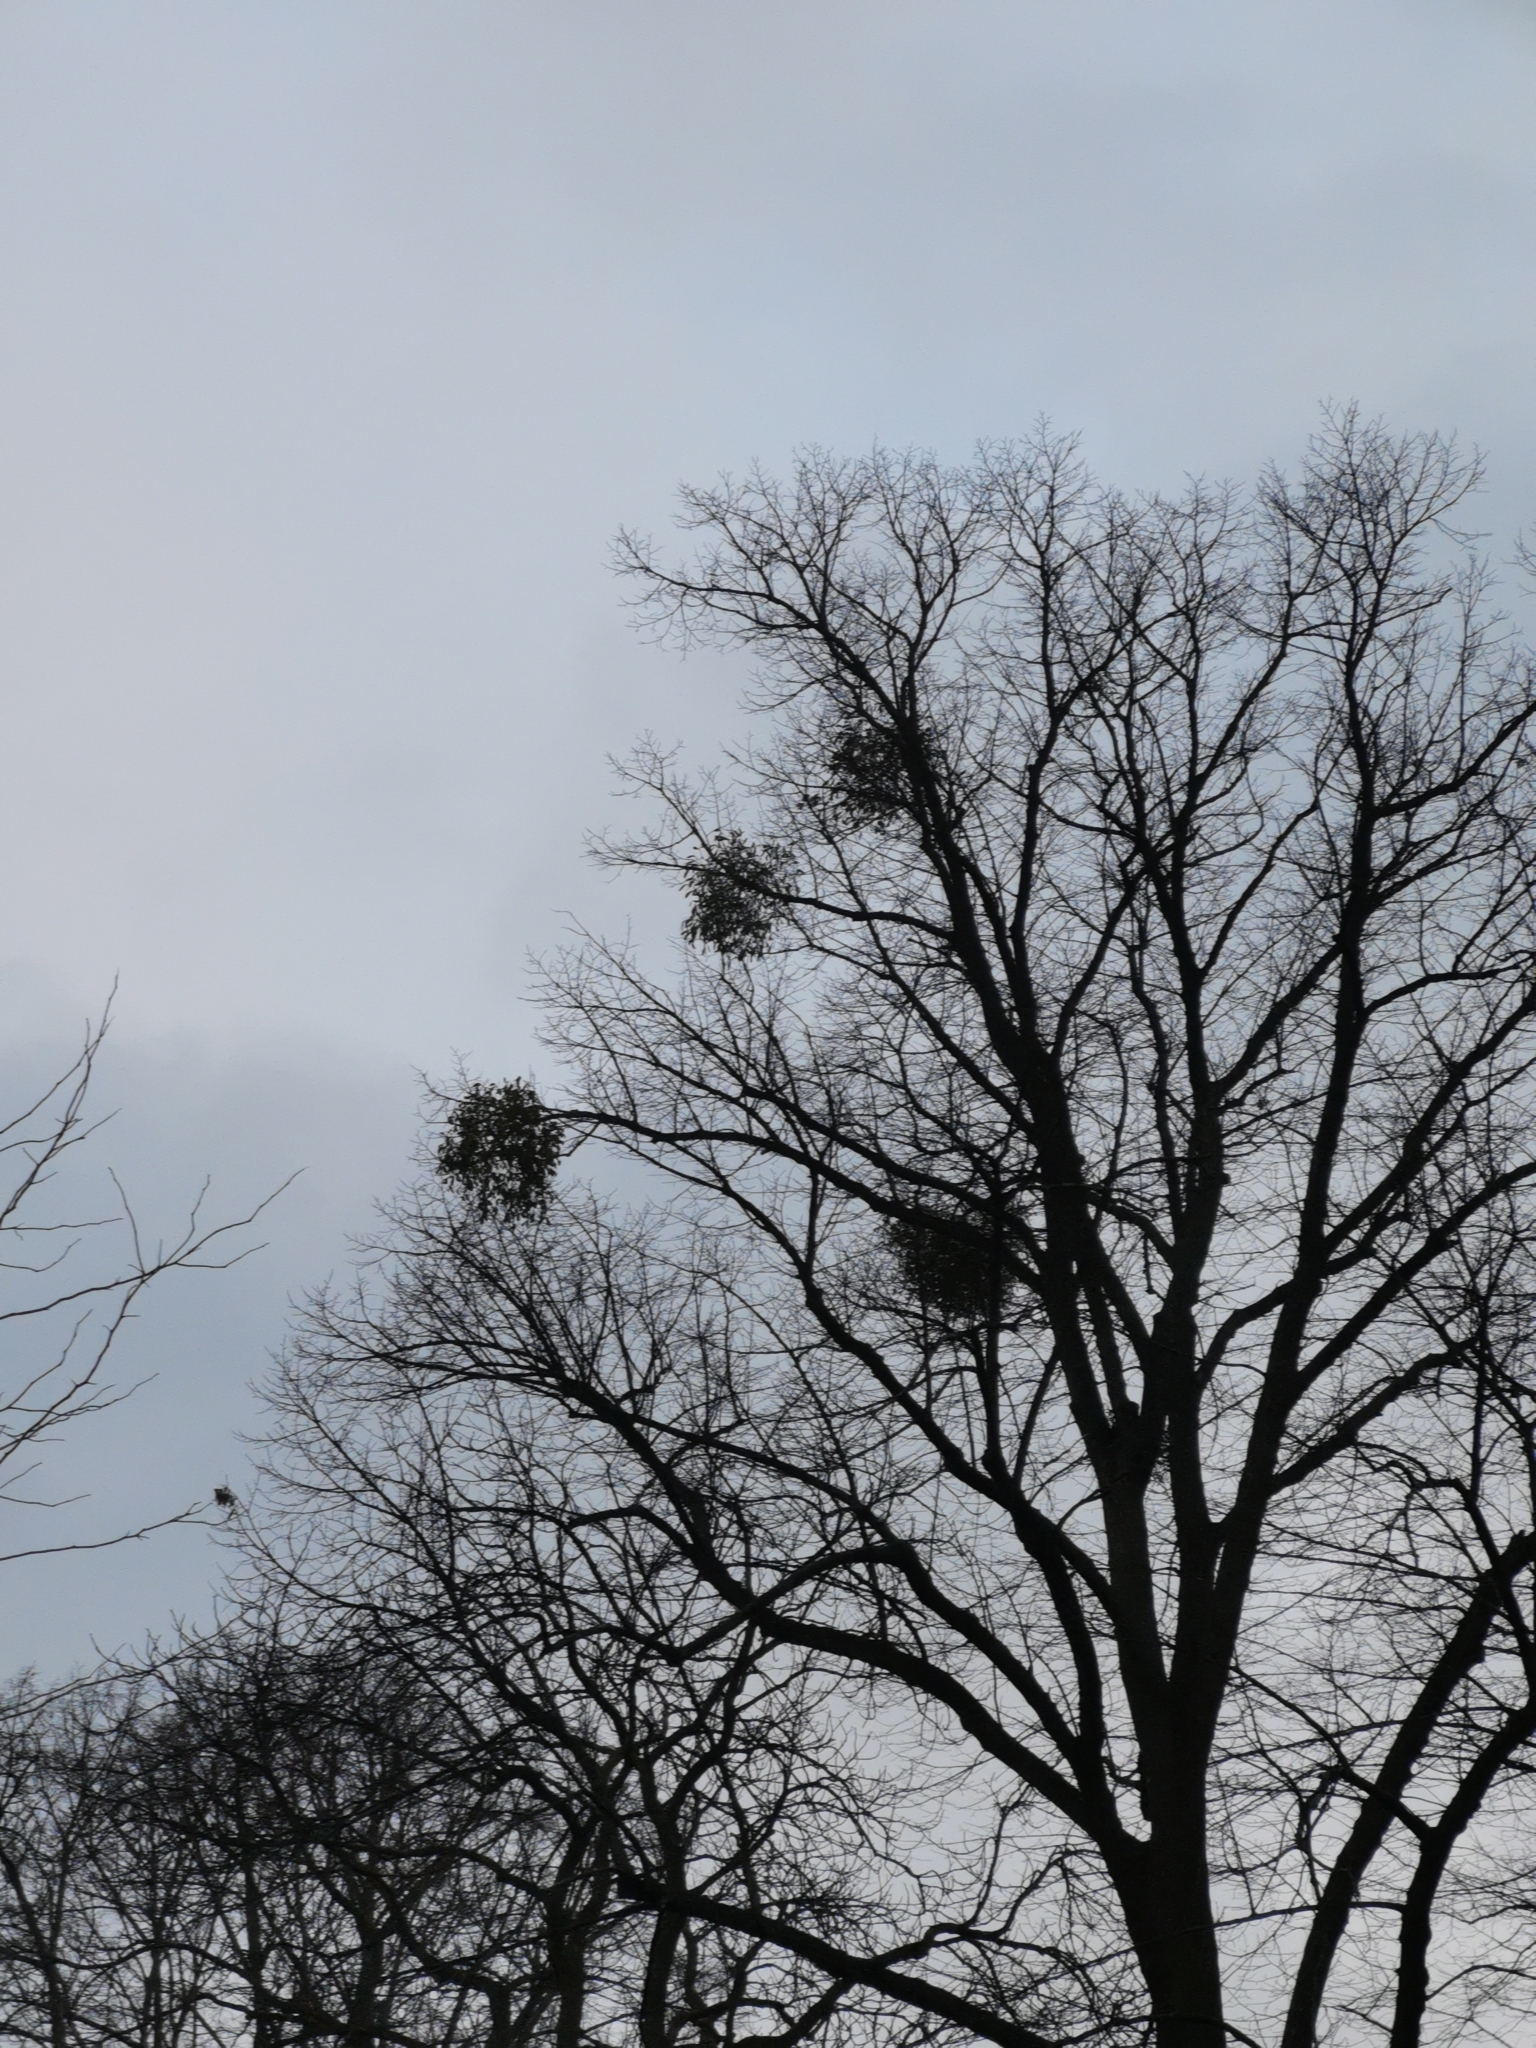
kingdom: Plantae
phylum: Tracheophyta
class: Magnoliopsida
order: Santalales
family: Viscaceae
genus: Viscum
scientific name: Viscum album
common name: Mistletoe
